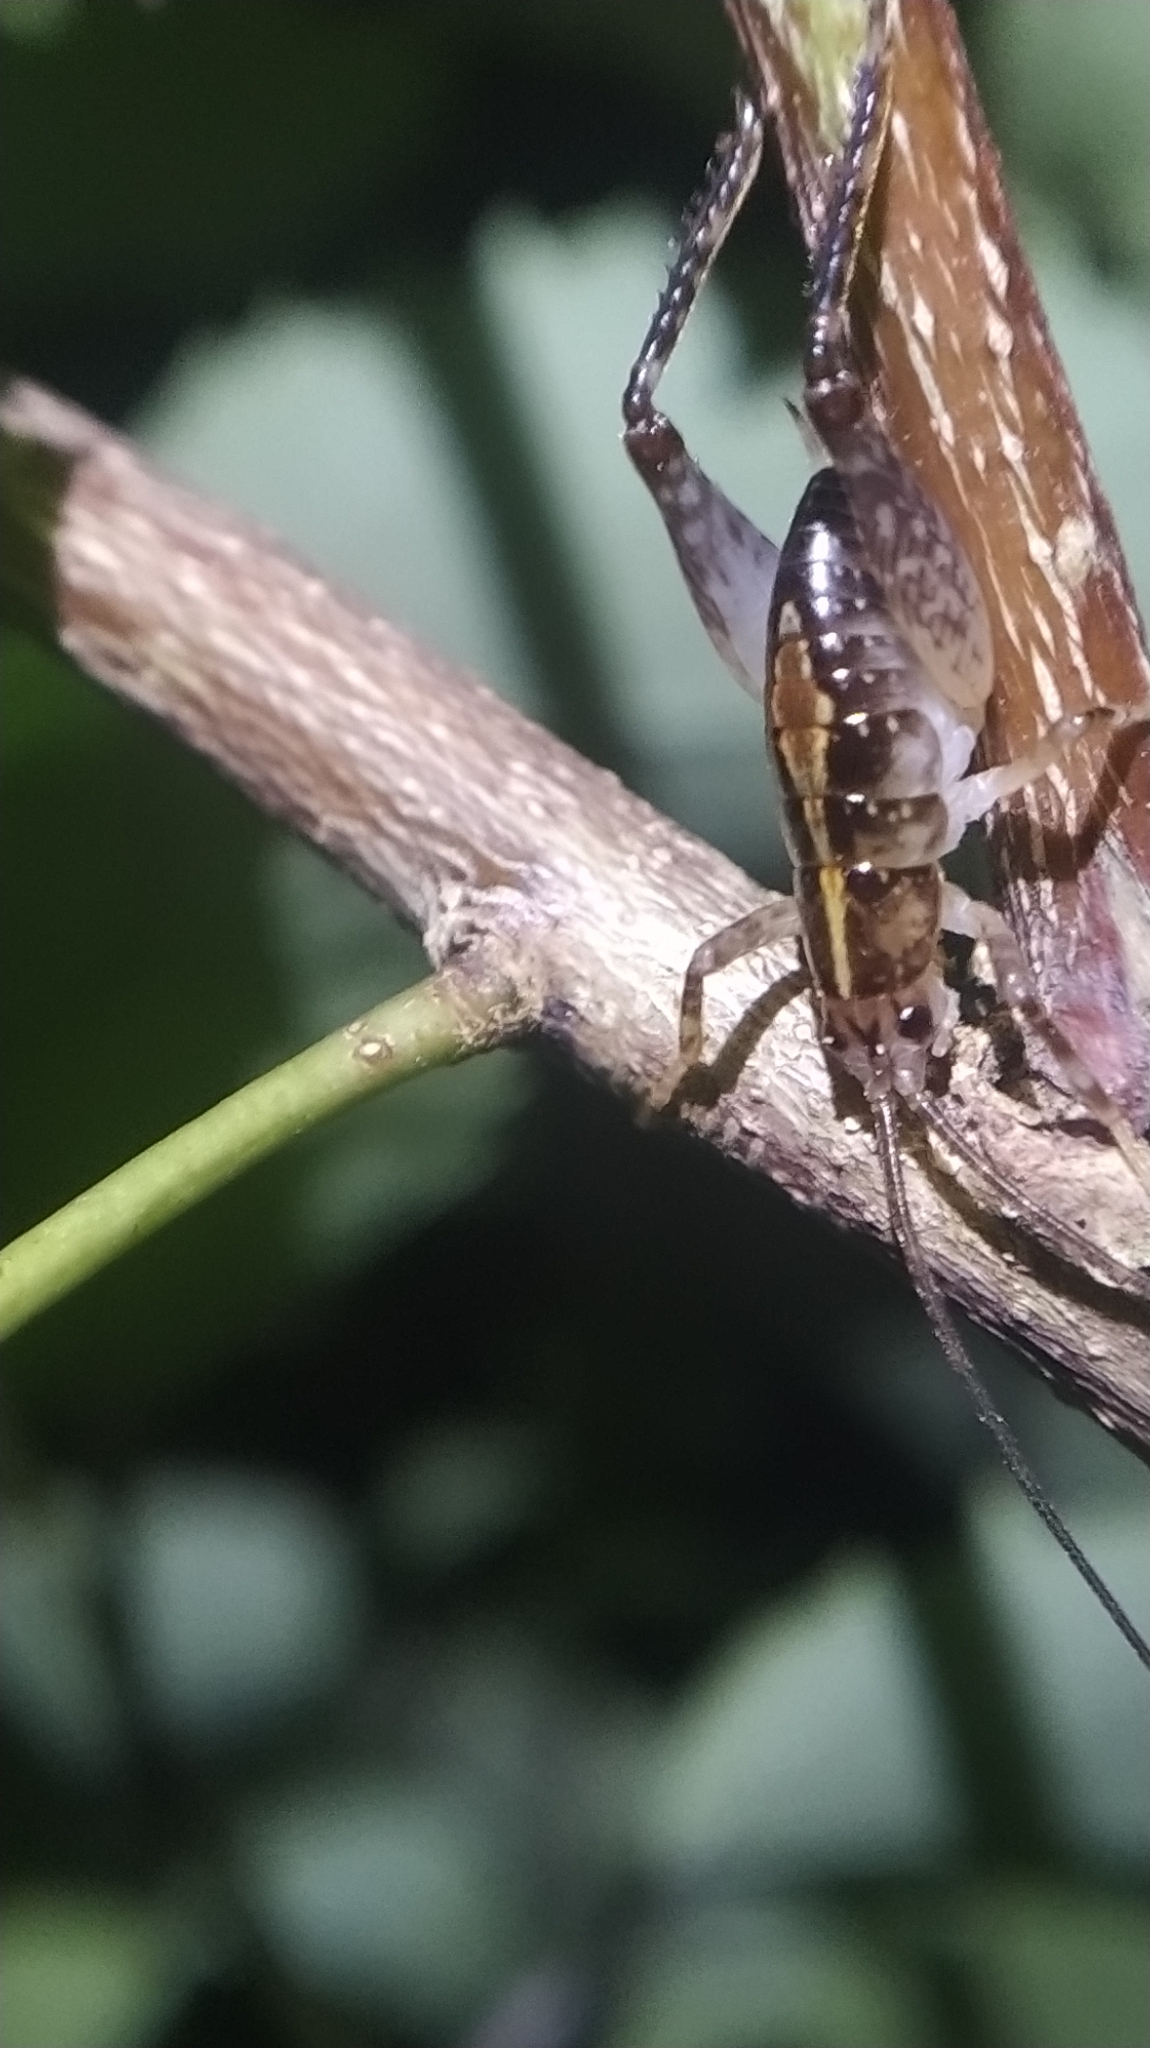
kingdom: Animalia
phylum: Arthropoda
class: Insecta
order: Orthoptera
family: Rhaphidophoridae
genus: Talitropsis
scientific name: Talitropsis sedilloti
